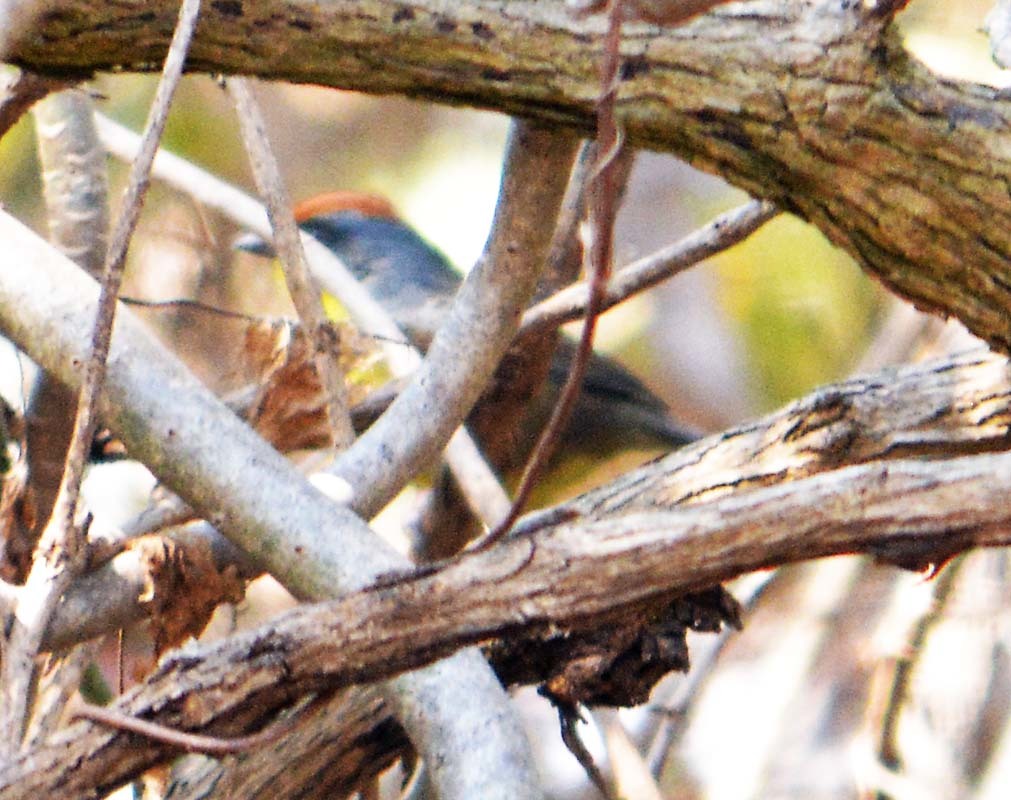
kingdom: Animalia
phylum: Chordata
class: Aves
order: Passeriformes
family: Passerellidae
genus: Atlapetes
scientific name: Atlapetes pileatus
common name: Rufous-capped brush-finch
